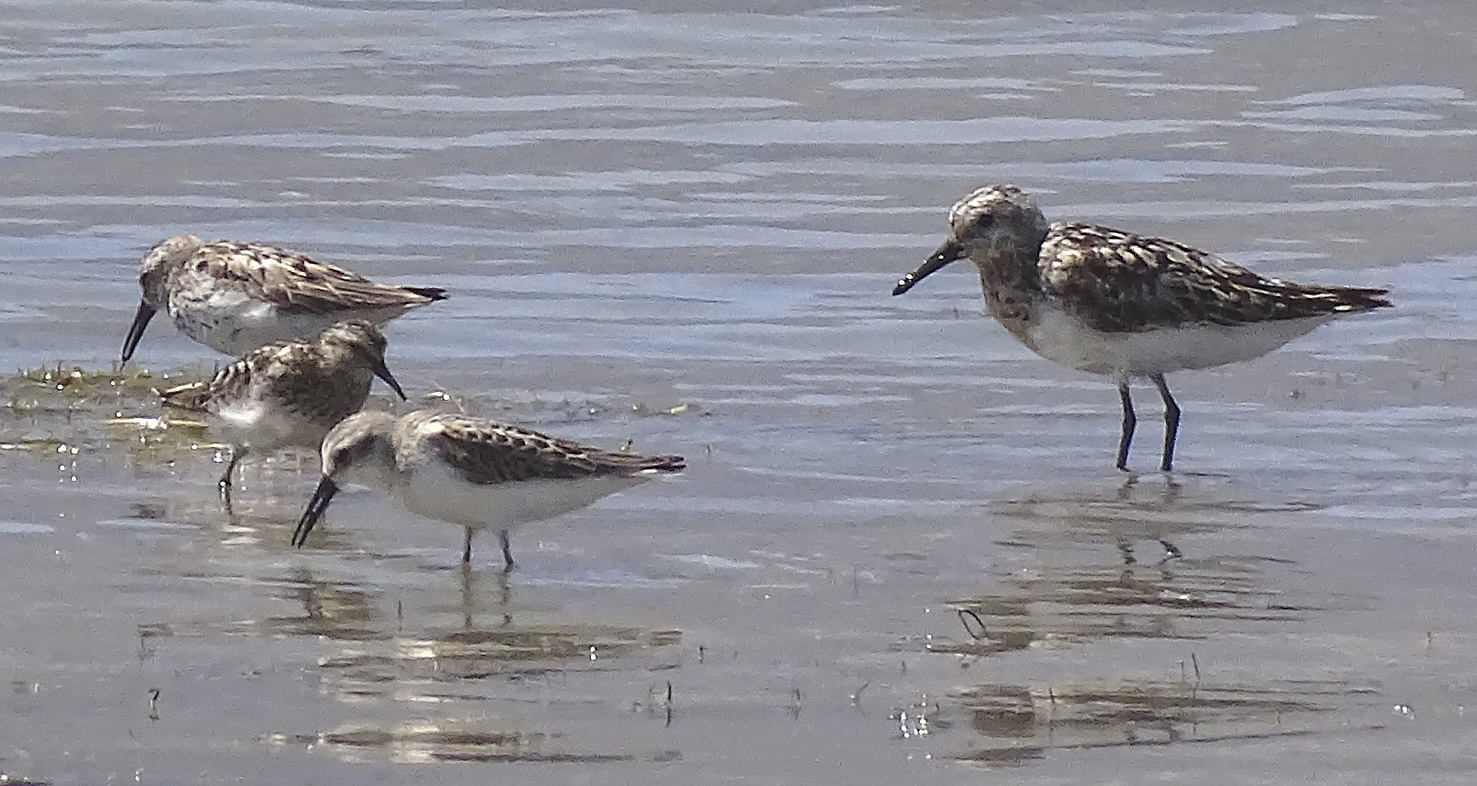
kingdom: Animalia
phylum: Chordata
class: Aves
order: Charadriiformes
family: Scolopacidae
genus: Calidris
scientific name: Calidris alba
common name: Sanderling
